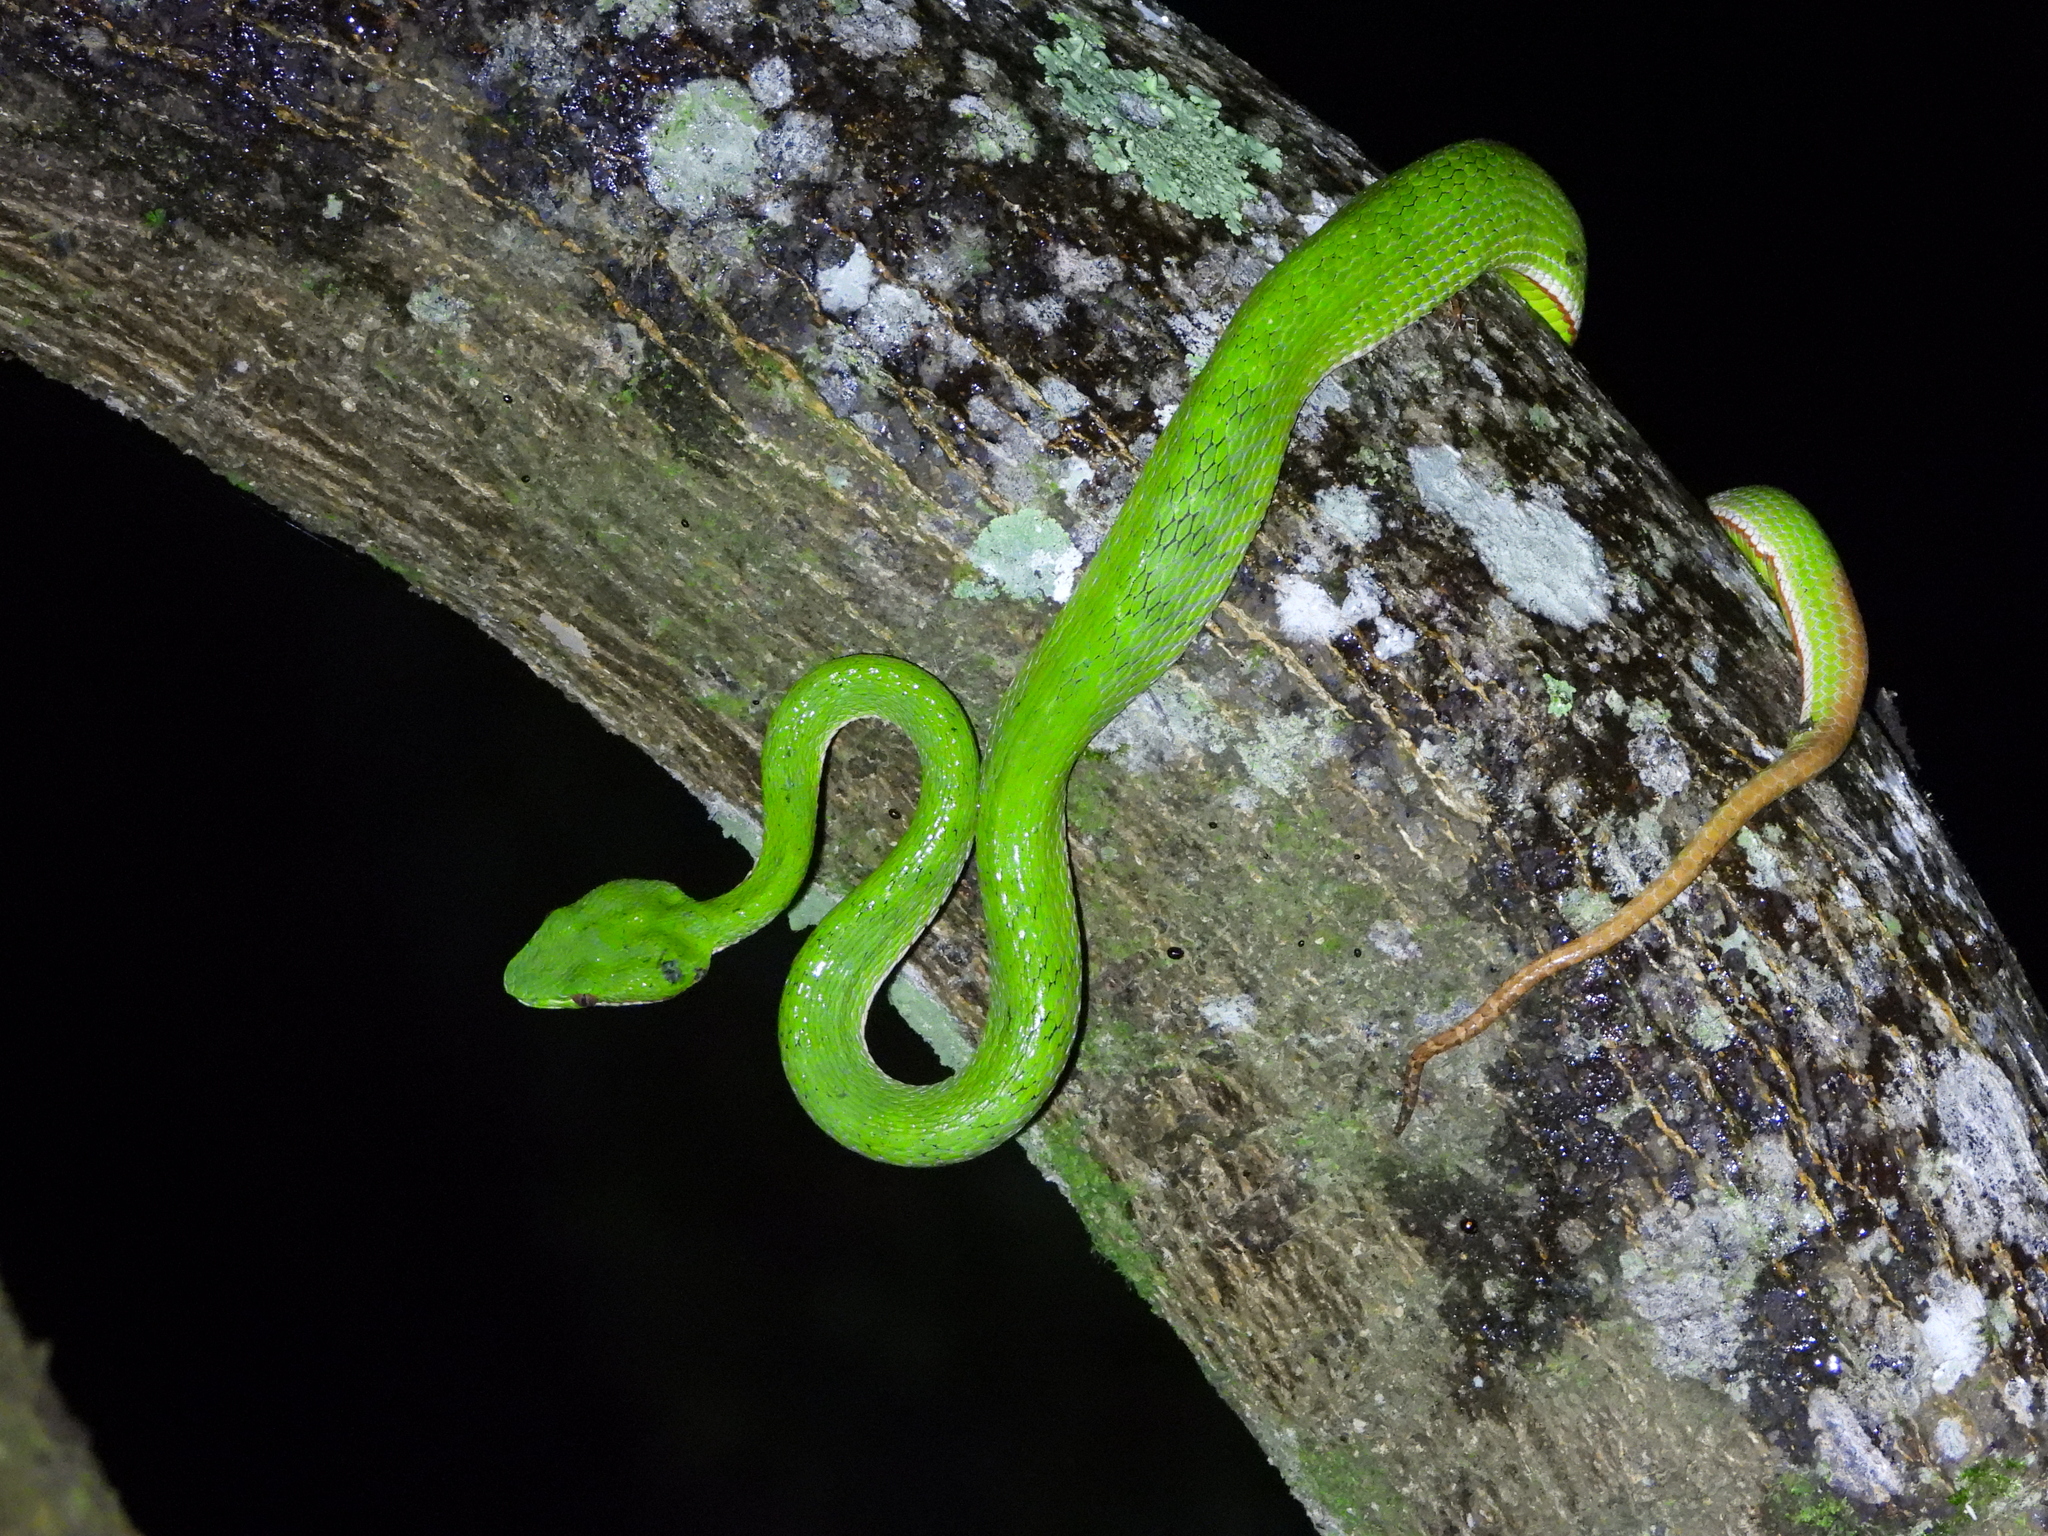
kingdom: Animalia
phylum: Chordata
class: Squamata
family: Viperidae
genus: Trimeresurus
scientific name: Trimeresurus stejnegeri
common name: Chen’s bamboo pit viper
